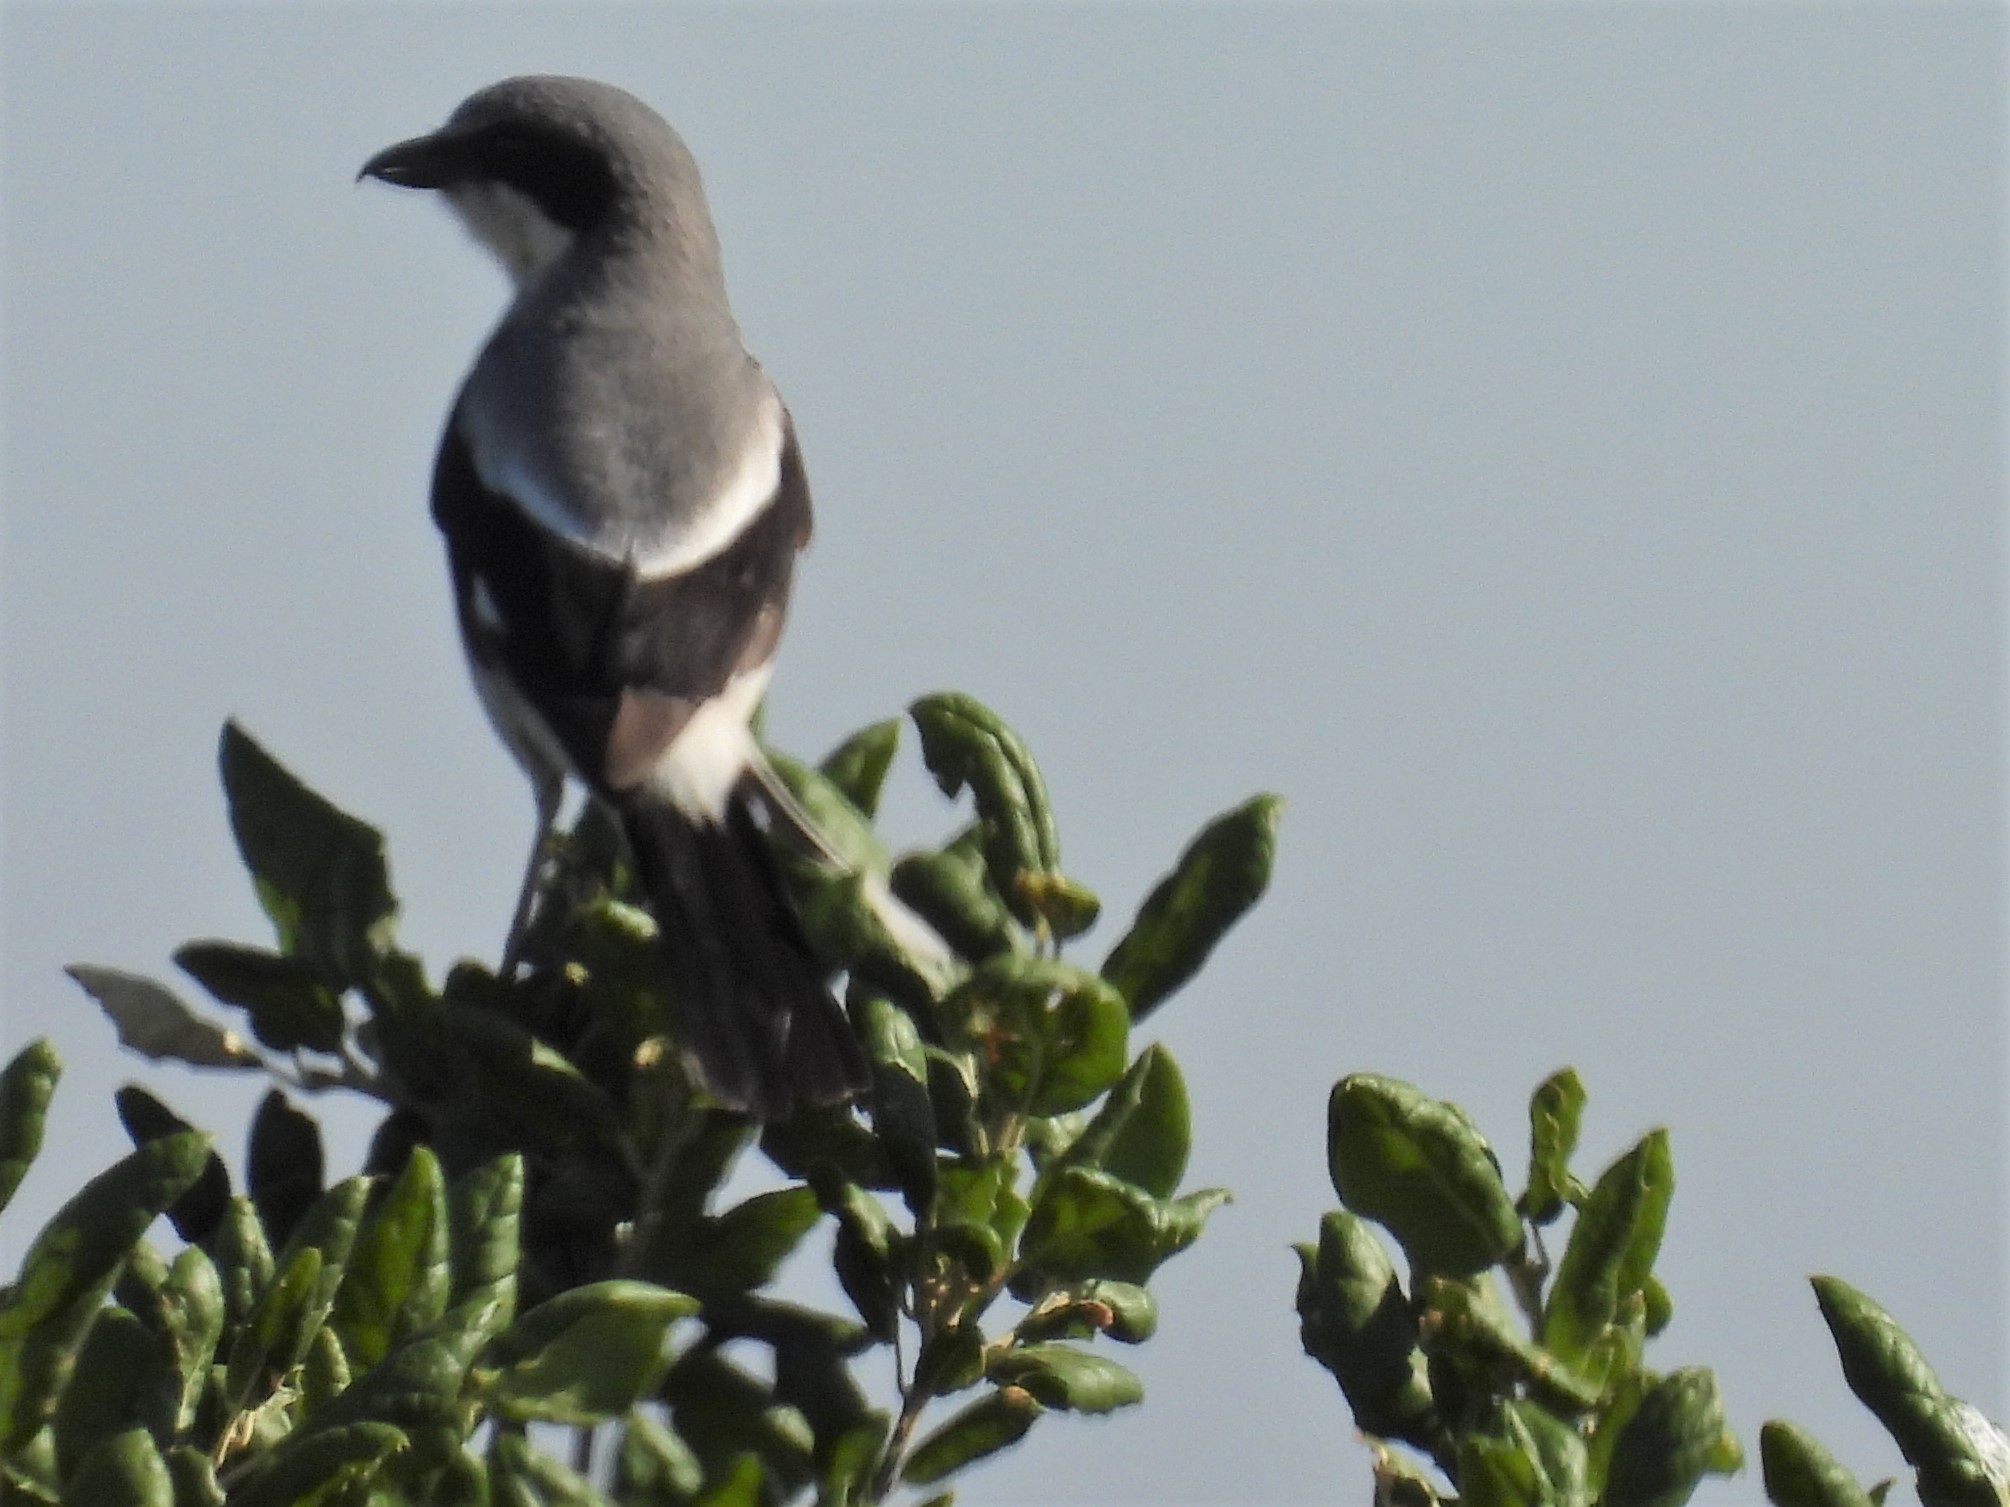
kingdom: Animalia
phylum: Chordata
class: Aves
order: Passeriformes
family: Laniidae
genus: Lanius
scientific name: Lanius ludovicianus
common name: Loggerhead shrike
